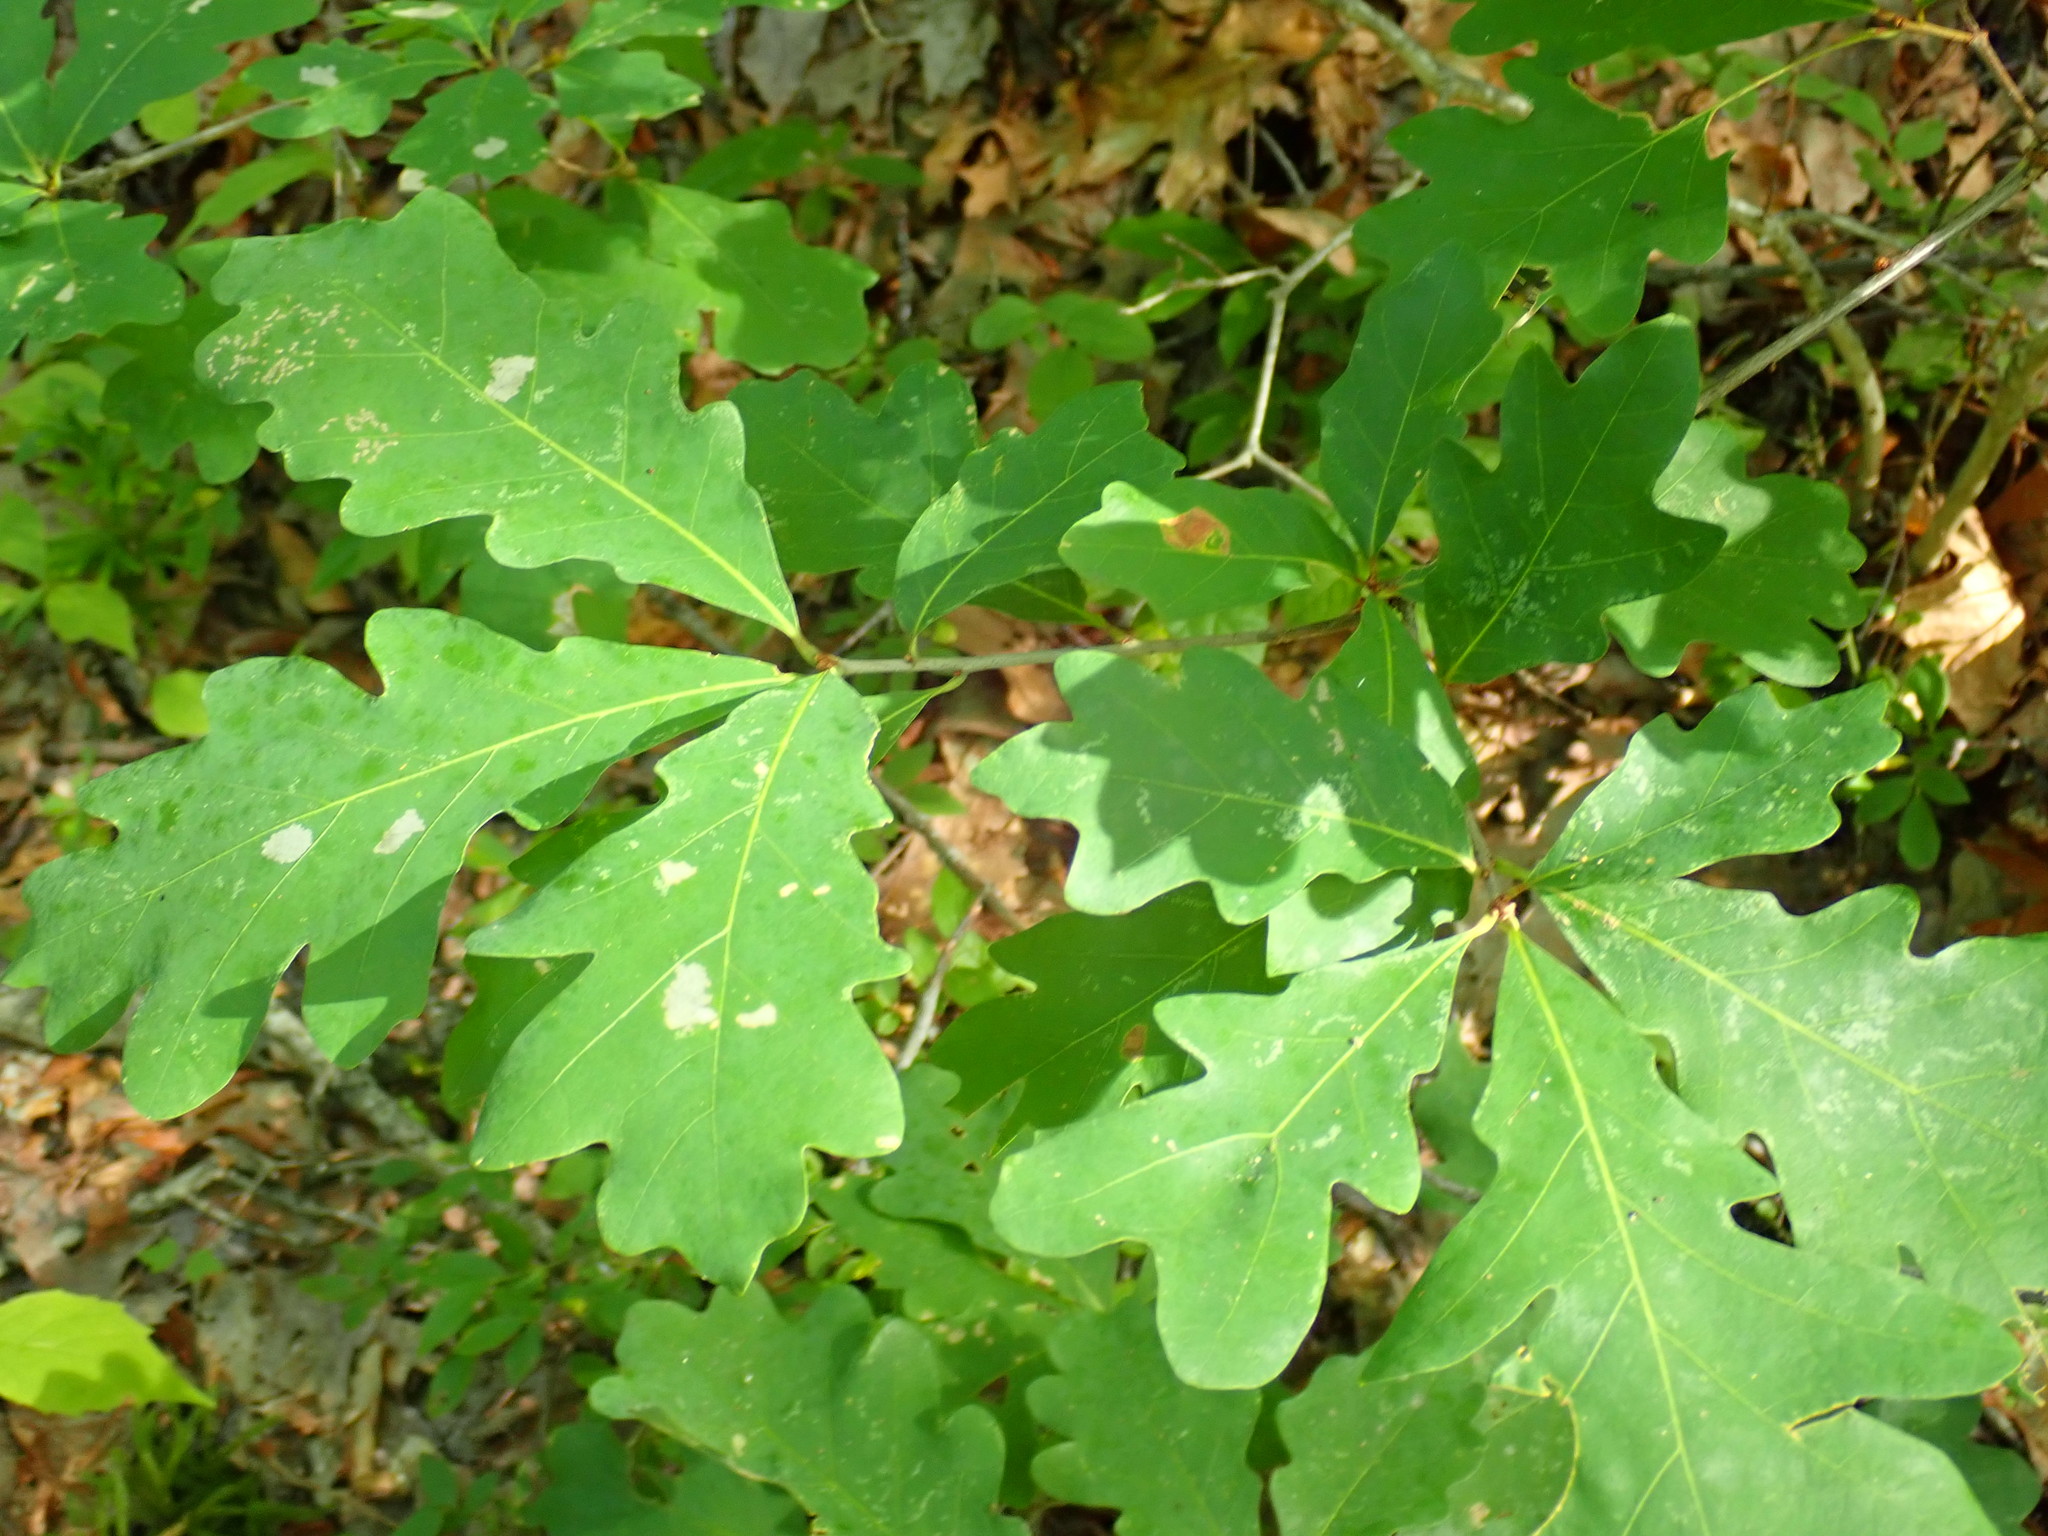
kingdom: Plantae
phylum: Tracheophyta
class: Magnoliopsida
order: Fagales
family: Fagaceae
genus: Quercus
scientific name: Quercus alba
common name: White oak
